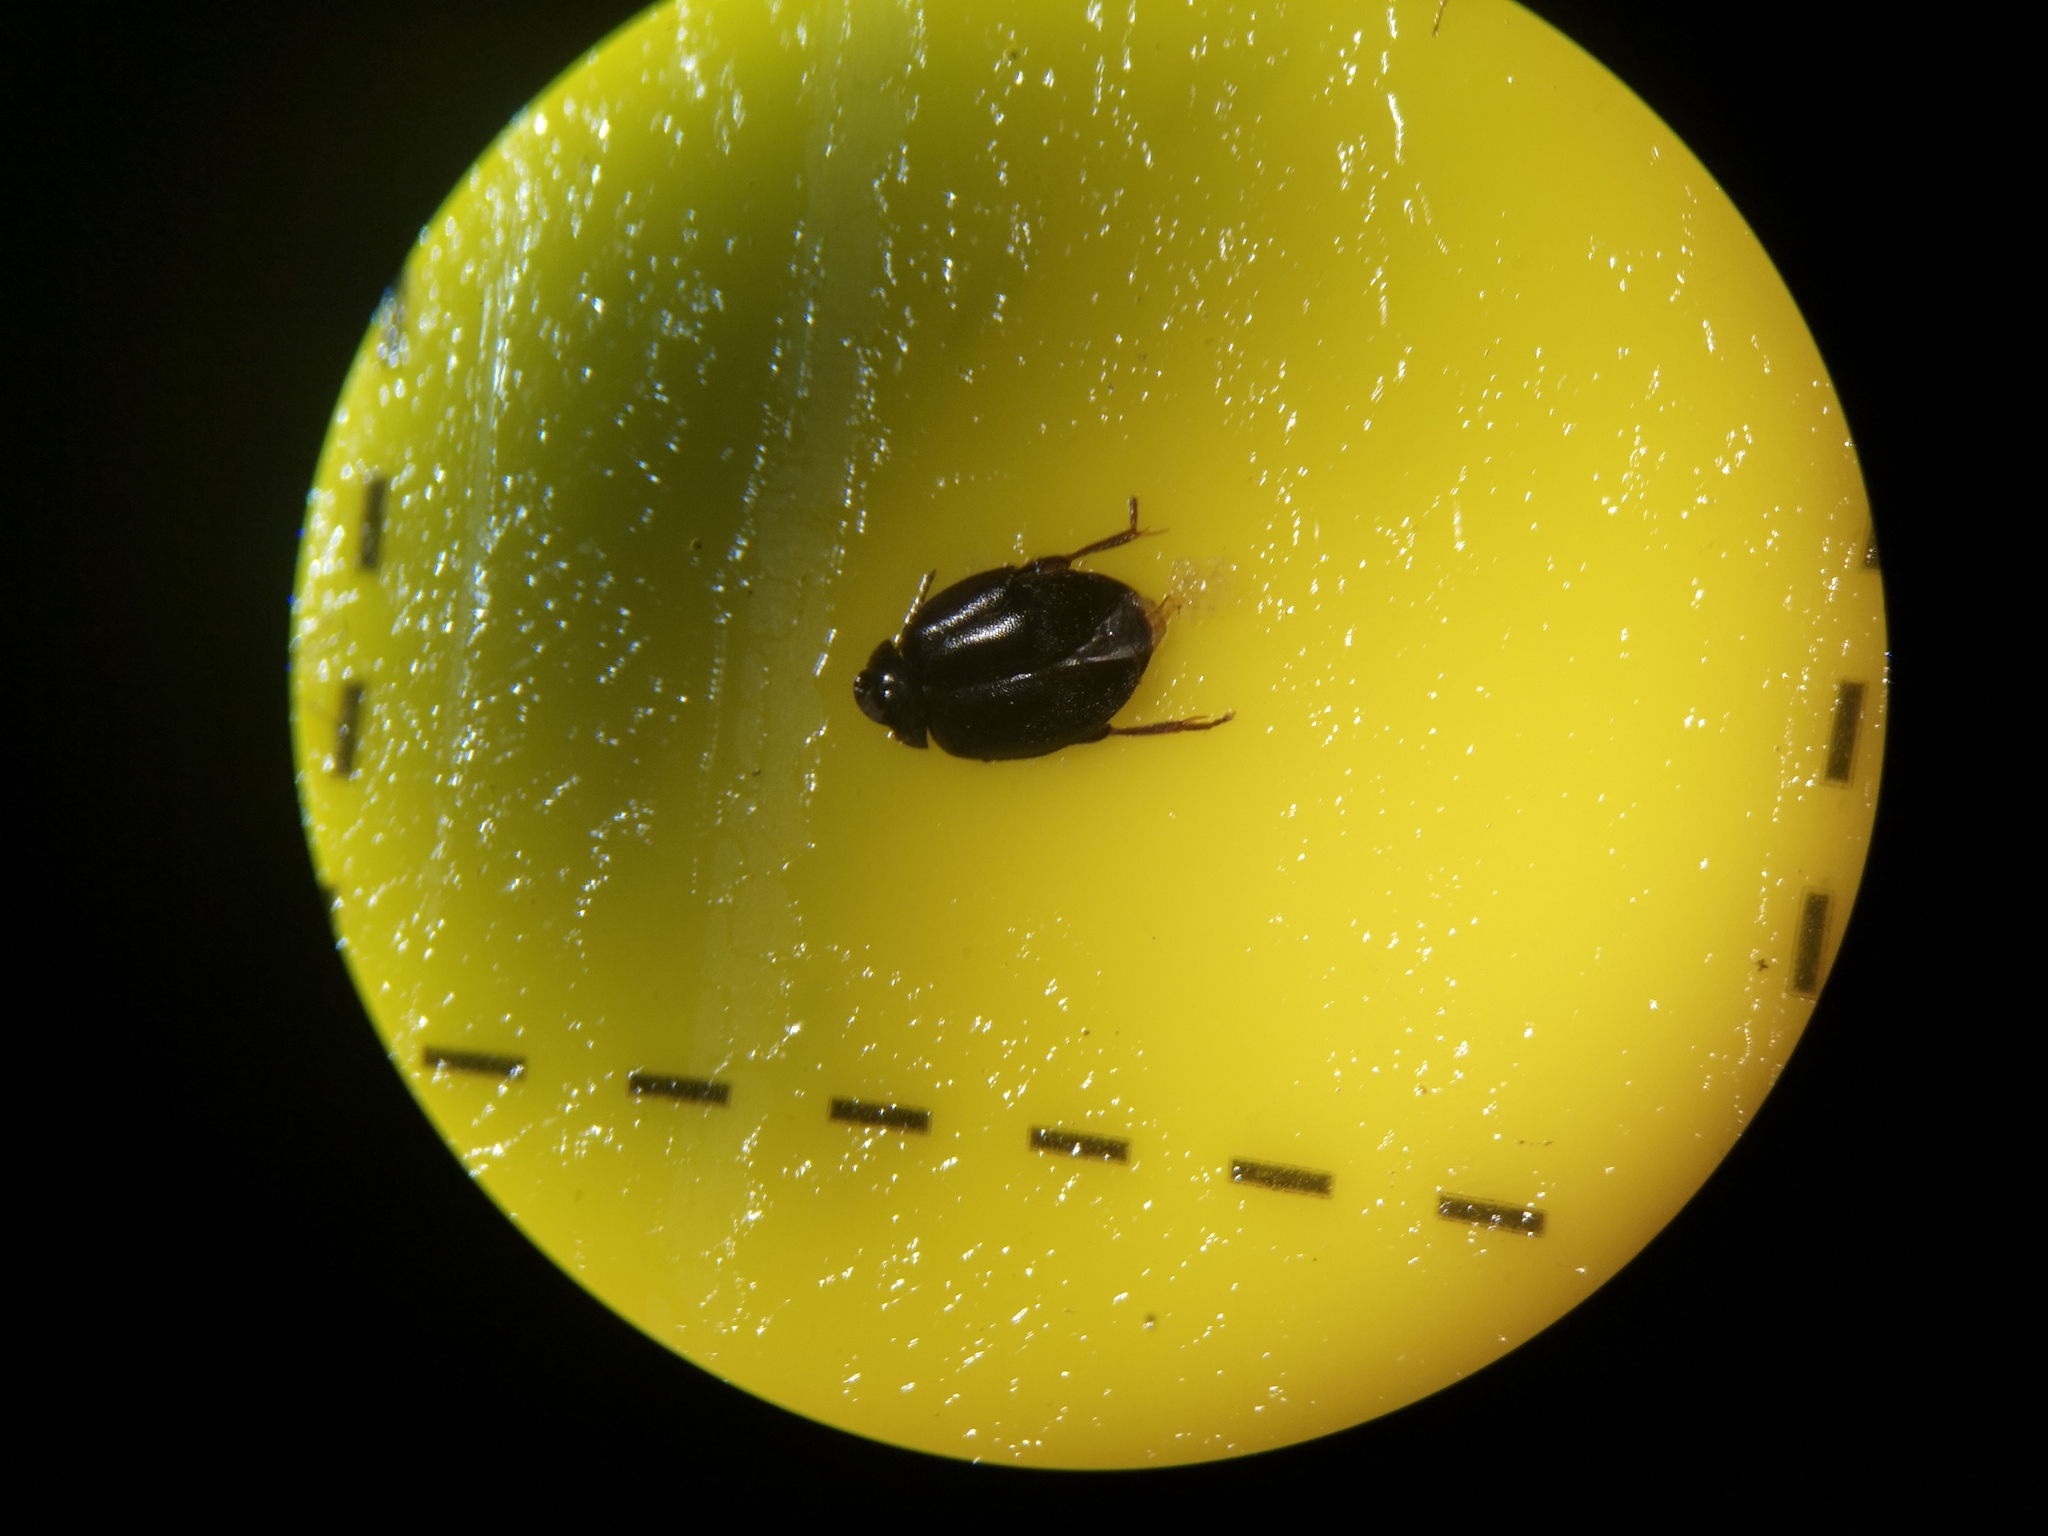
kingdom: Animalia
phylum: Arthropoda
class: Insecta
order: Coleoptera
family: Scirtidae
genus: Scirtes
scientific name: Scirtes hemisphaericus
